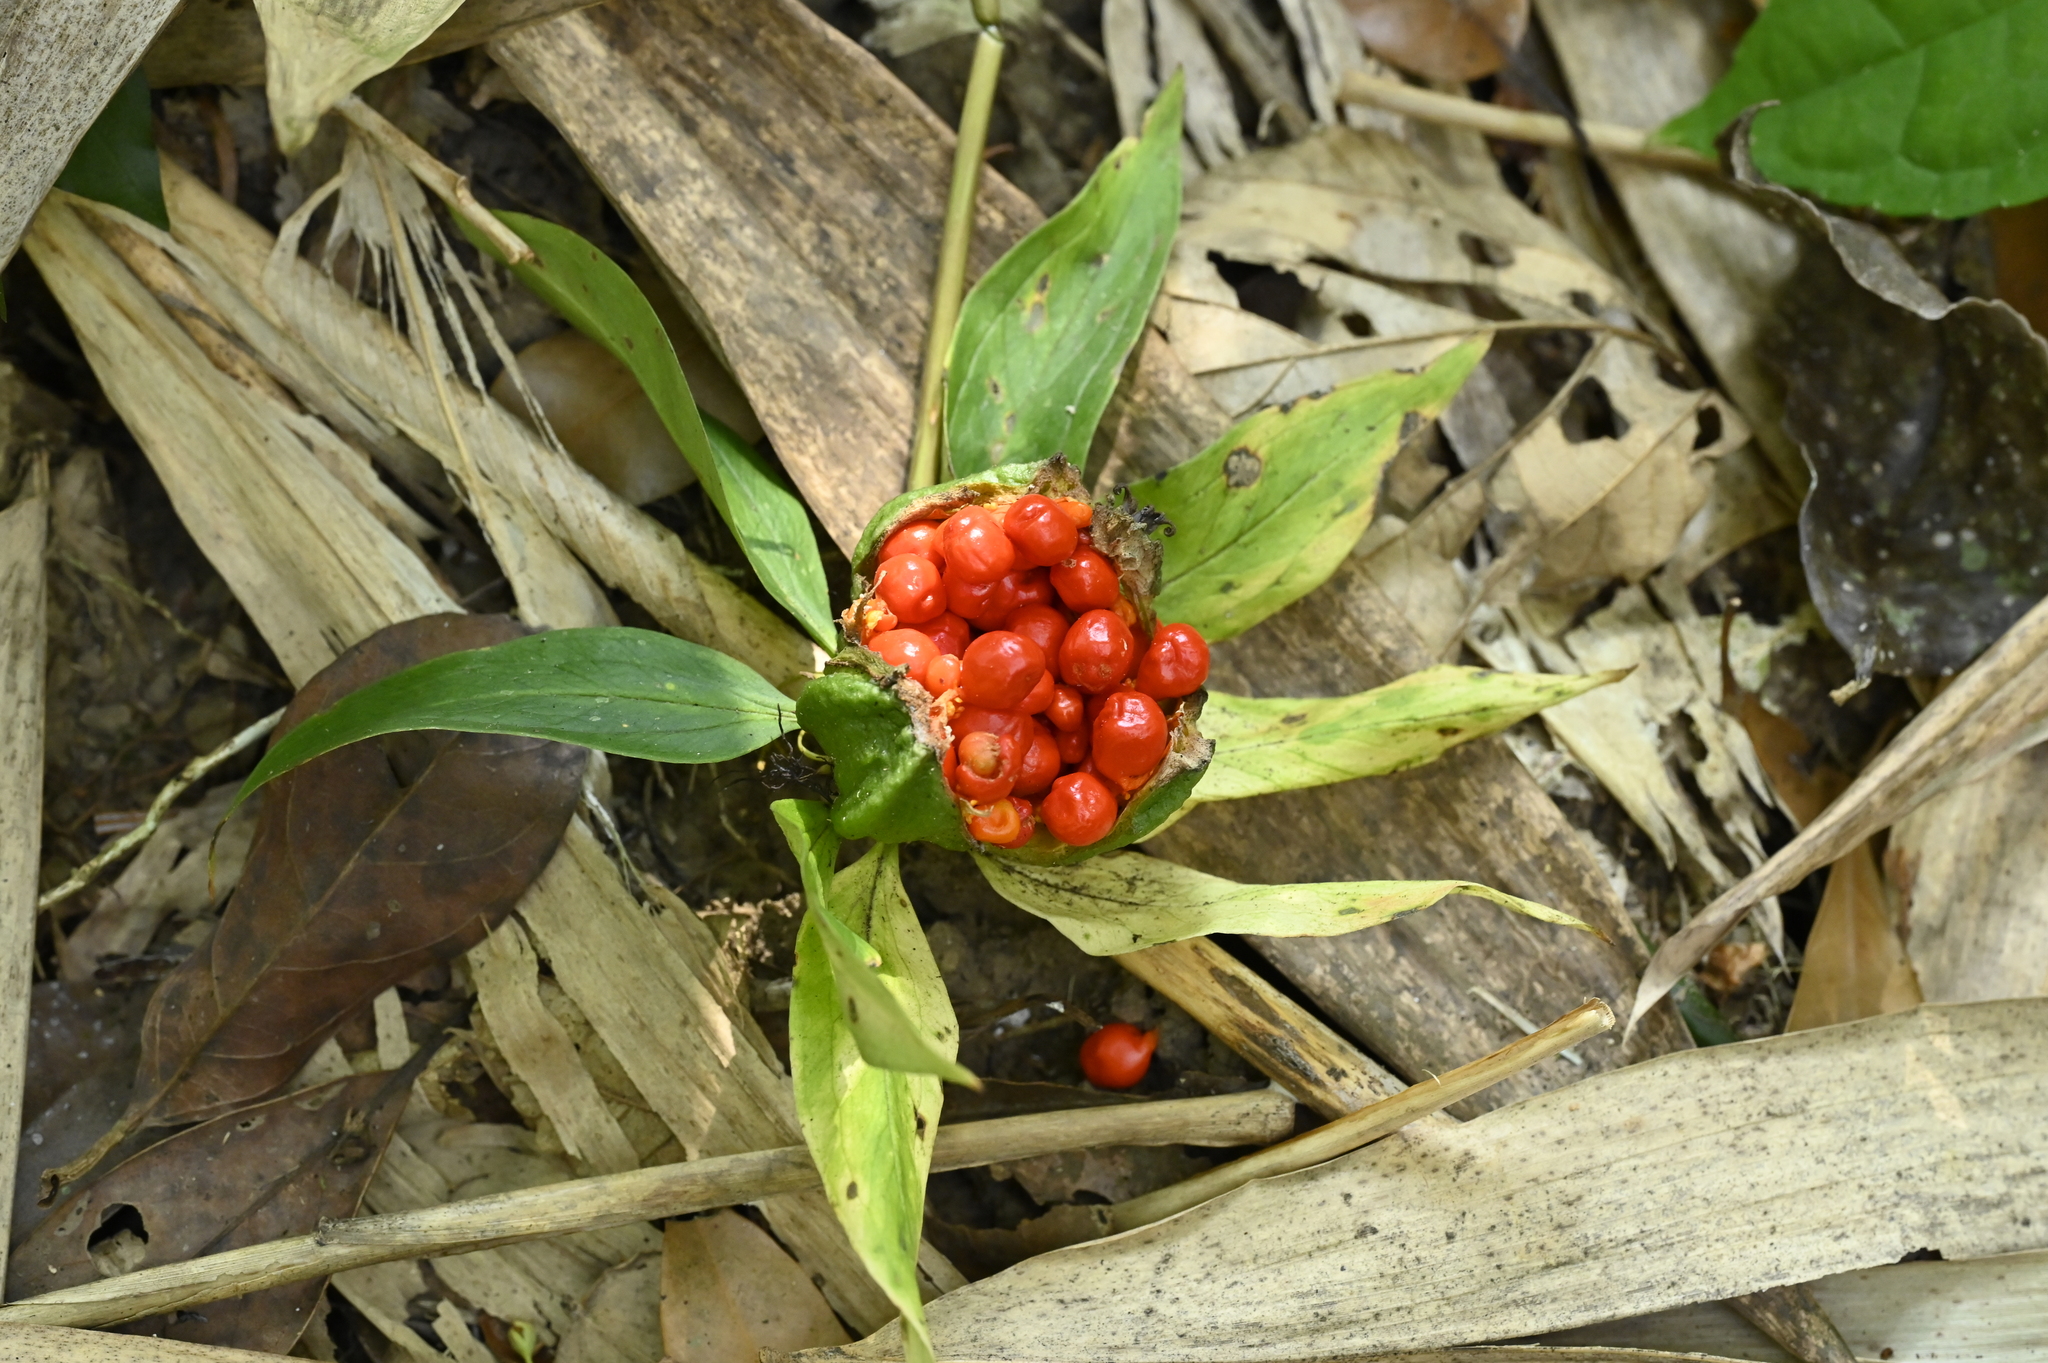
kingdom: Plantae
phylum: Tracheophyta
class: Liliopsida
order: Liliales
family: Melanthiaceae
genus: Paris
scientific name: Paris polyphylla
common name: Love apple
